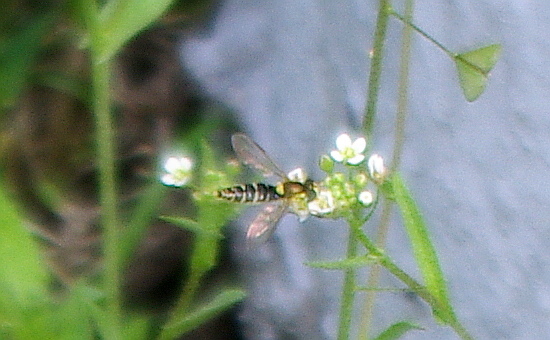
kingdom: Animalia
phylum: Arthropoda
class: Insecta
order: Diptera
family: Syrphidae
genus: Sphaerophoria
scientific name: Sphaerophoria
